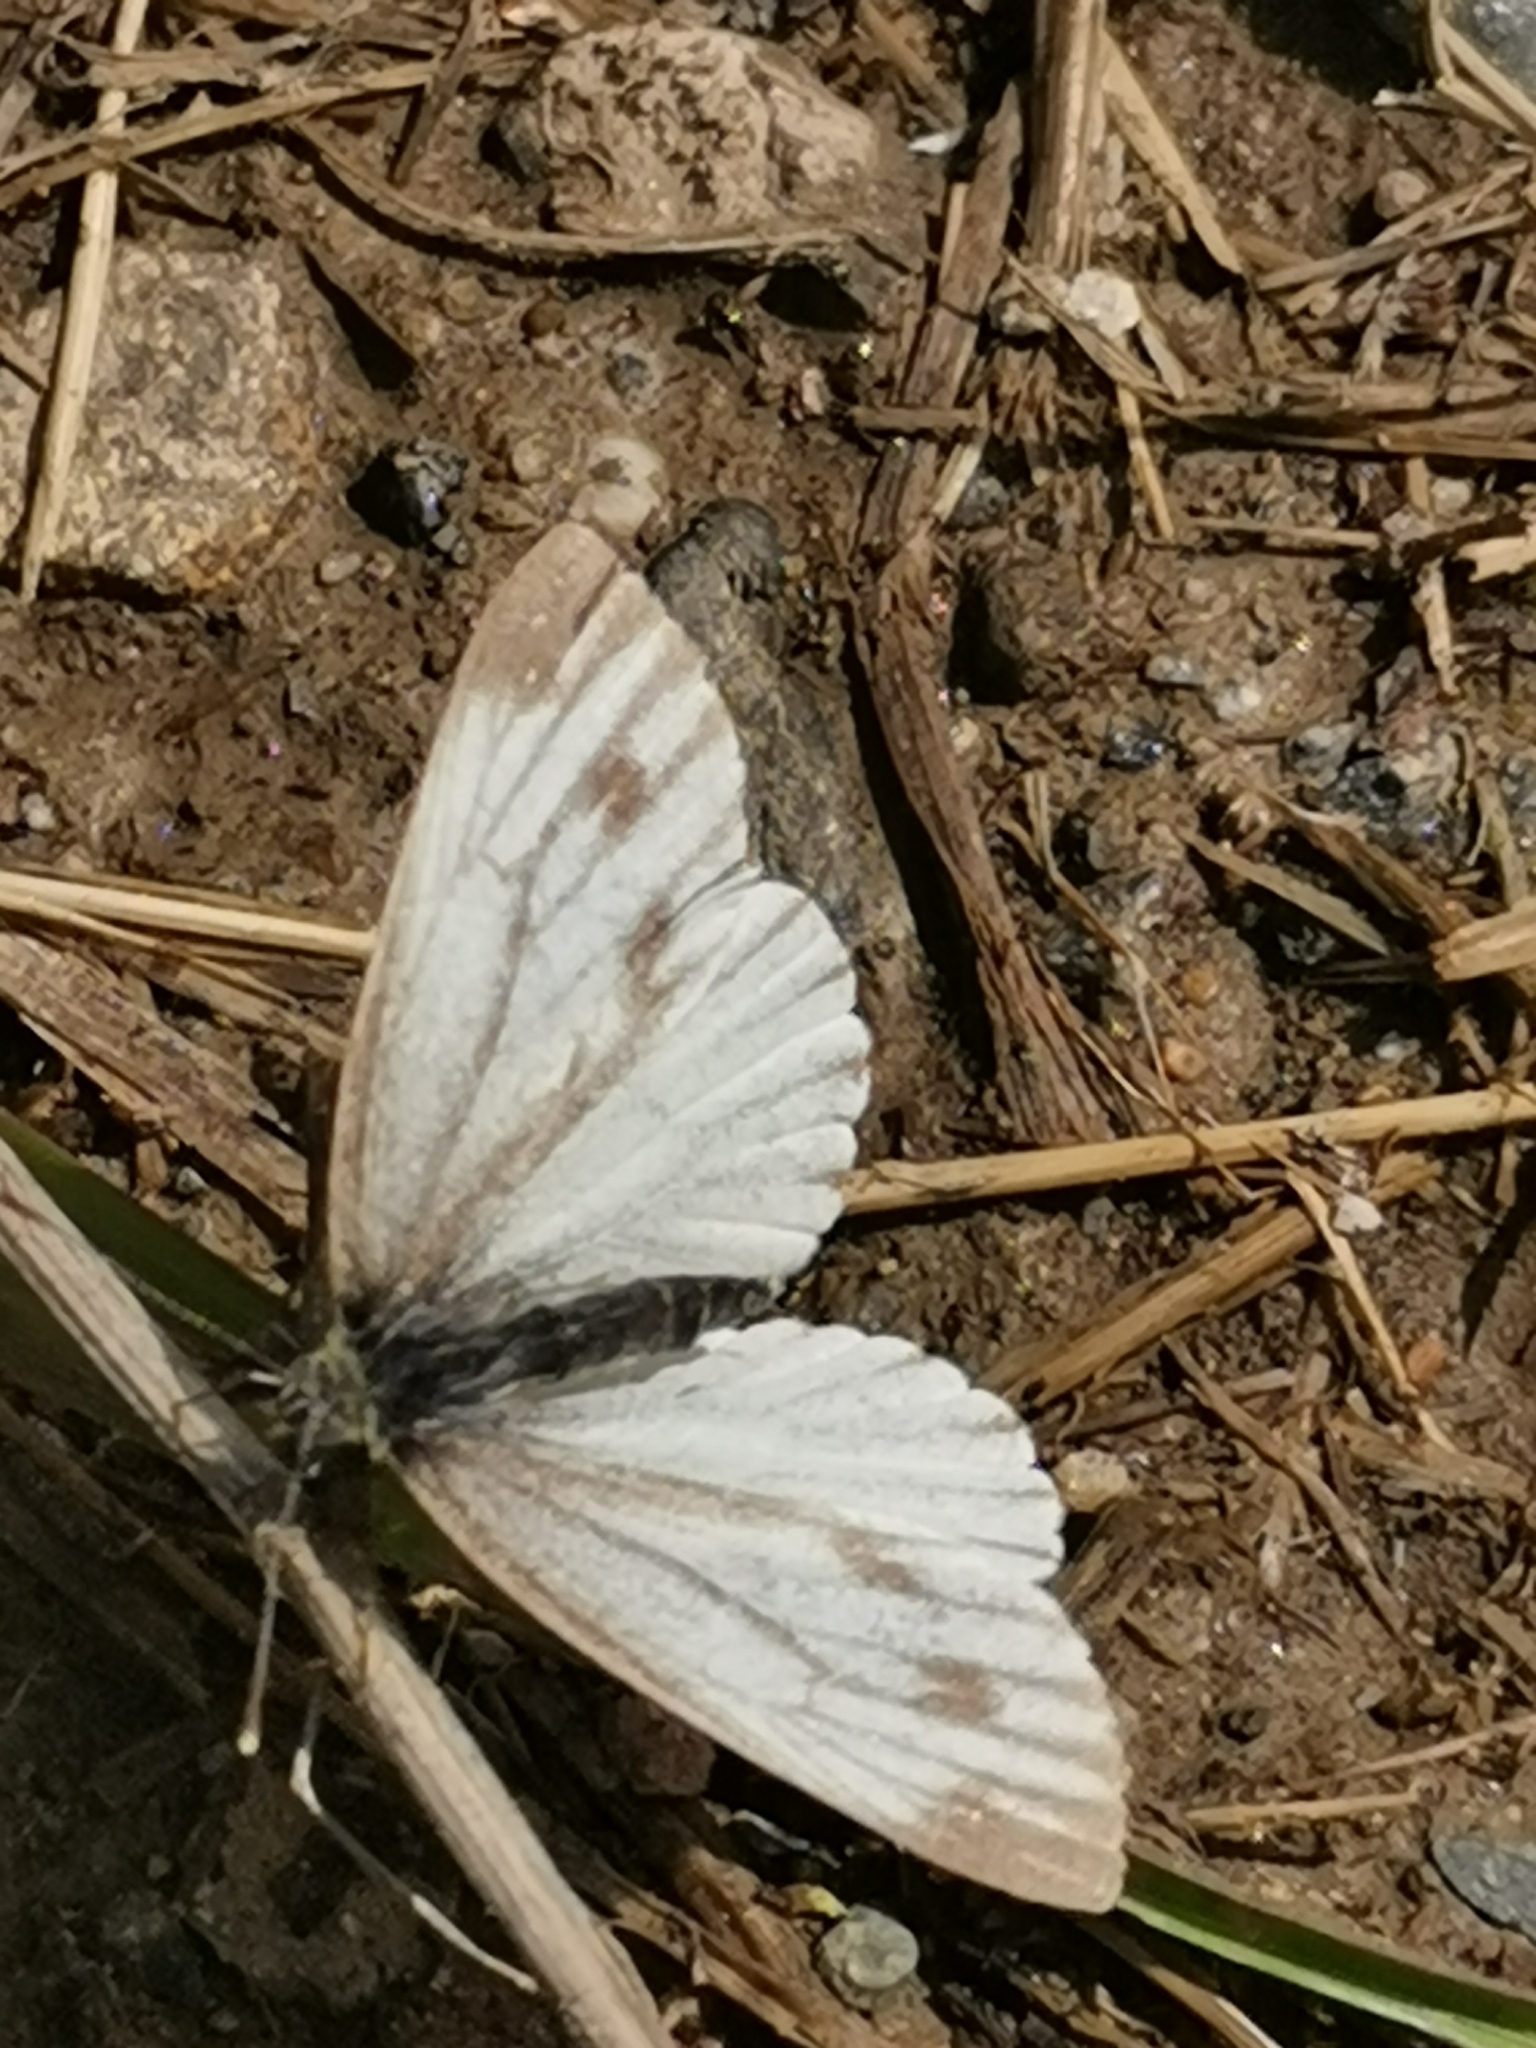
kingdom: Animalia
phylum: Arthropoda
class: Insecta
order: Lepidoptera
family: Pieridae
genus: Pieris
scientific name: Pieris napi
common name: Green-veined white
